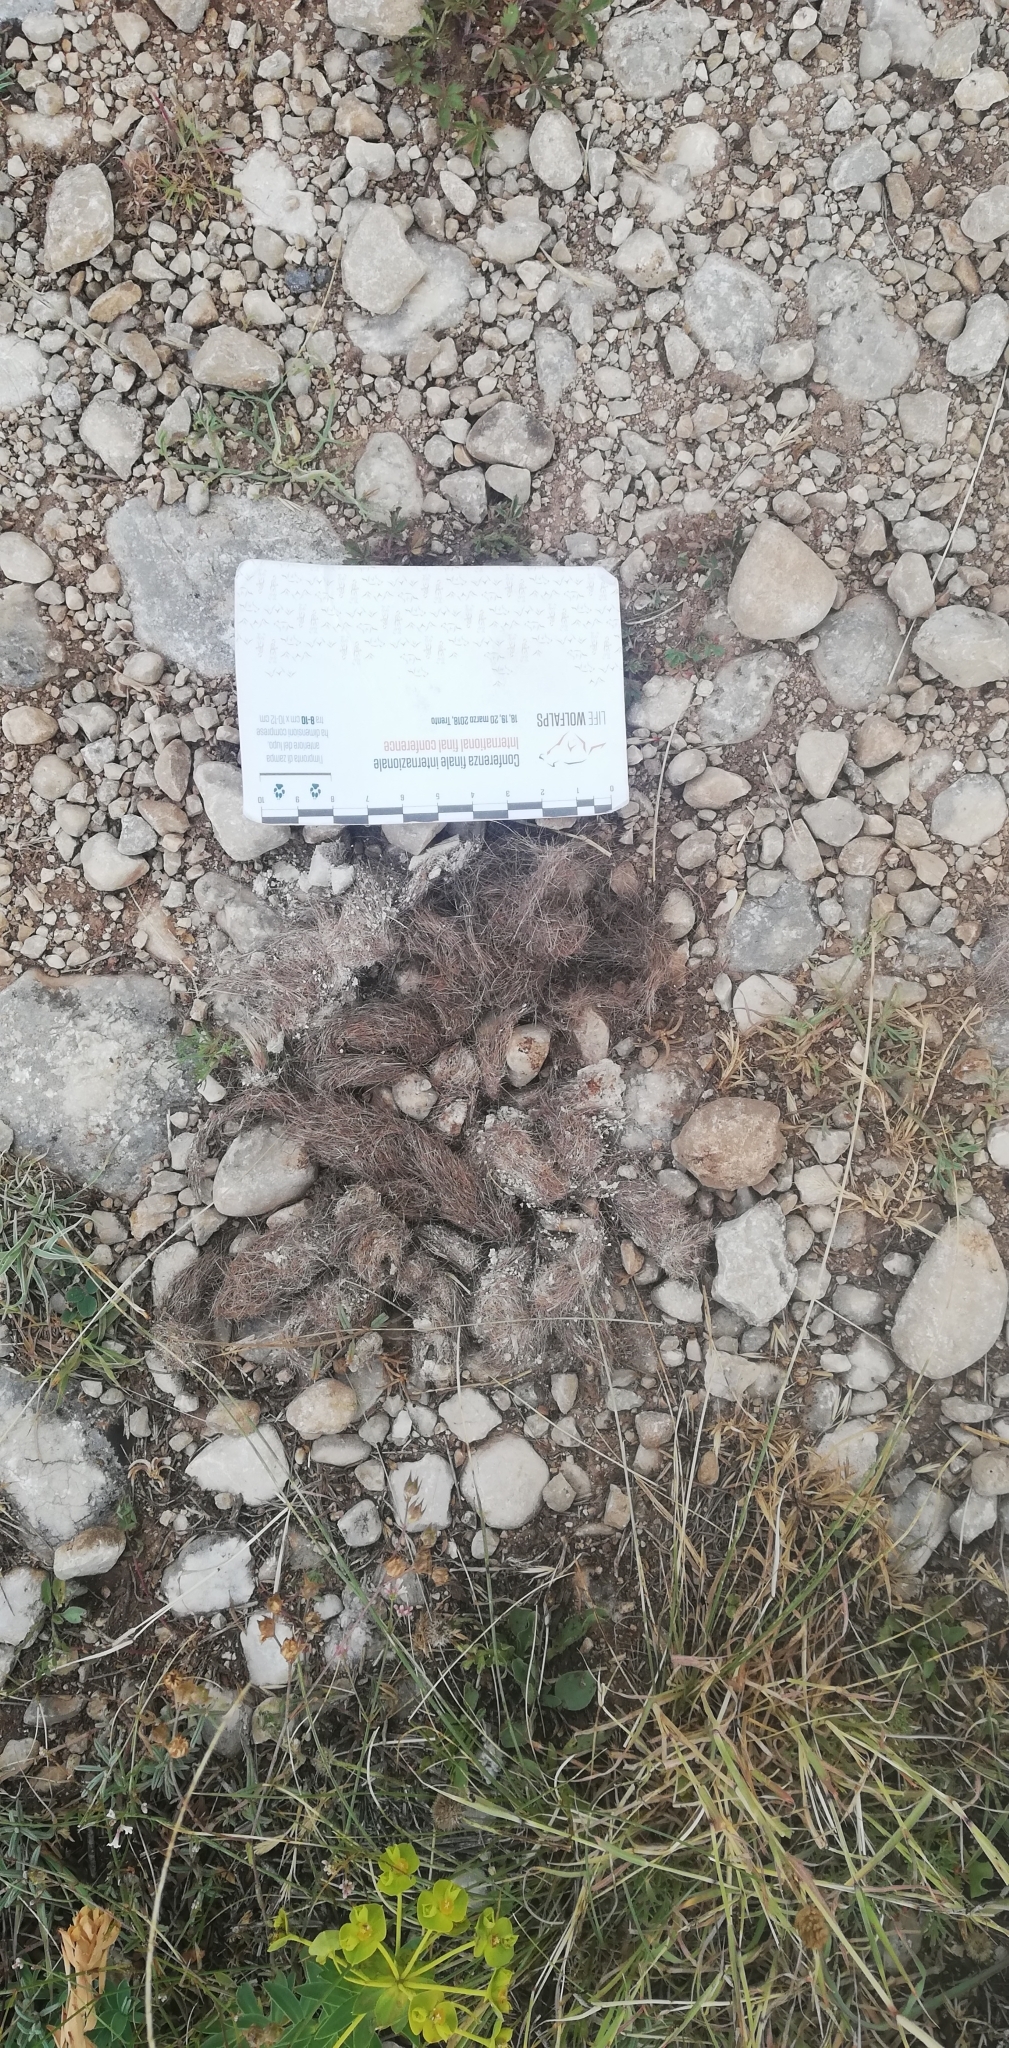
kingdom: Animalia
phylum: Chordata
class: Mammalia
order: Carnivora
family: Canidae
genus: Canis
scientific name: Canis lupus
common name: Gray wolf
